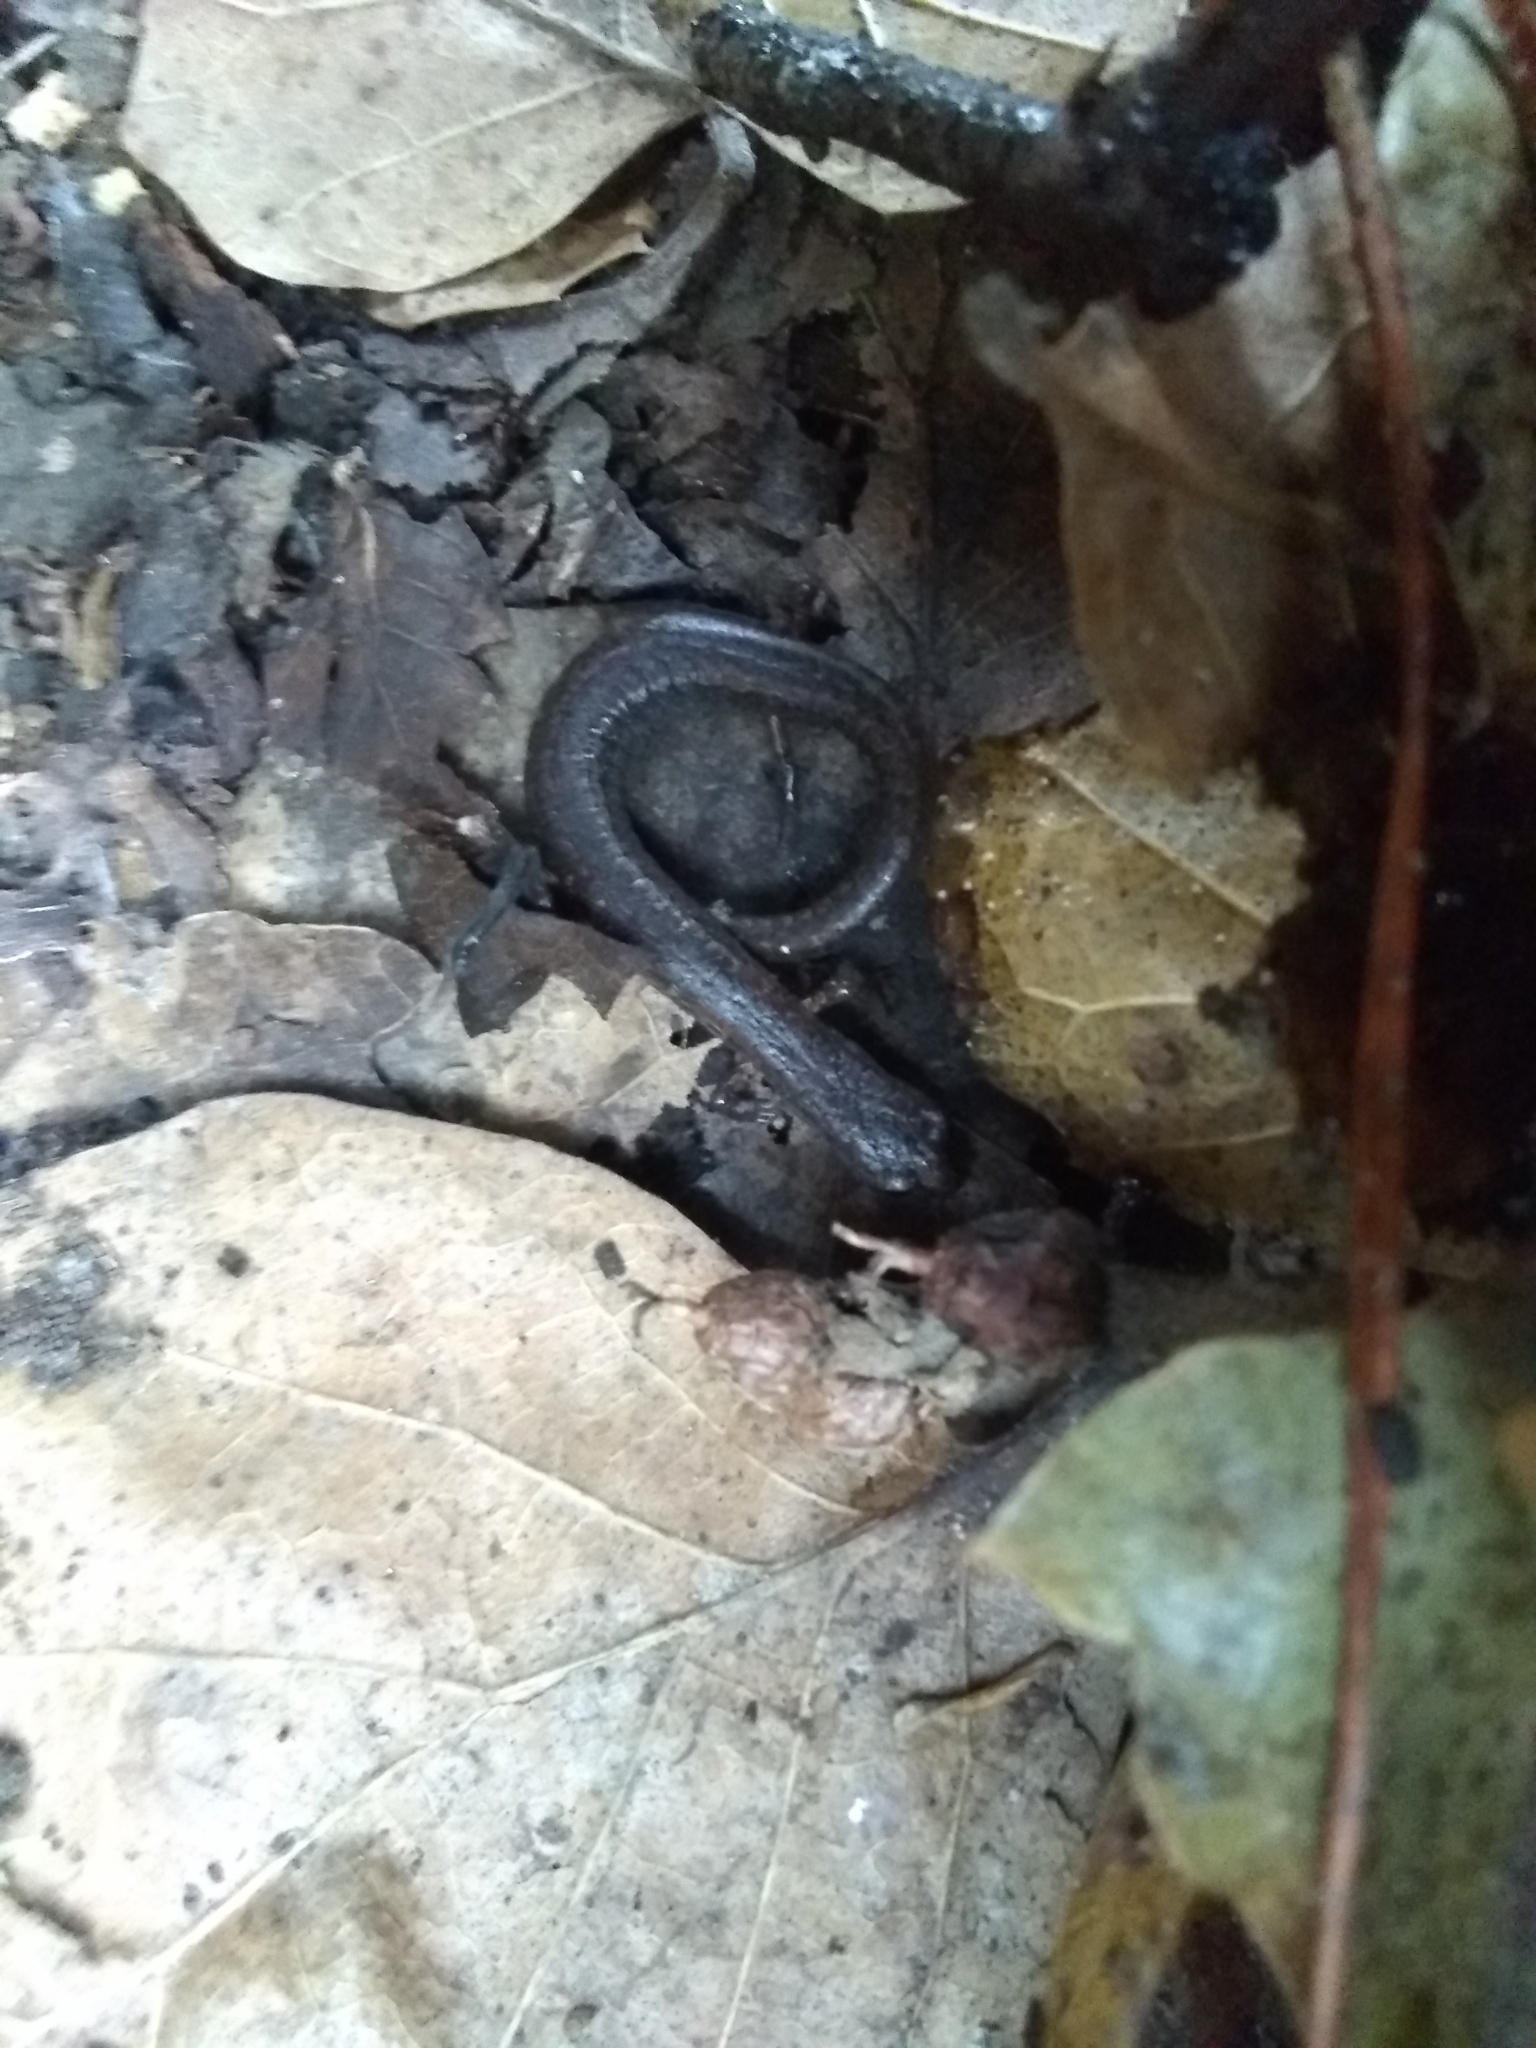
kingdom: Animalia
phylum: Chordata
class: Amphibia
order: Caudata
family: Plethodontidae
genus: Batrachoseps
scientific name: Batrachoseps attenuatus
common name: California slender salamander
